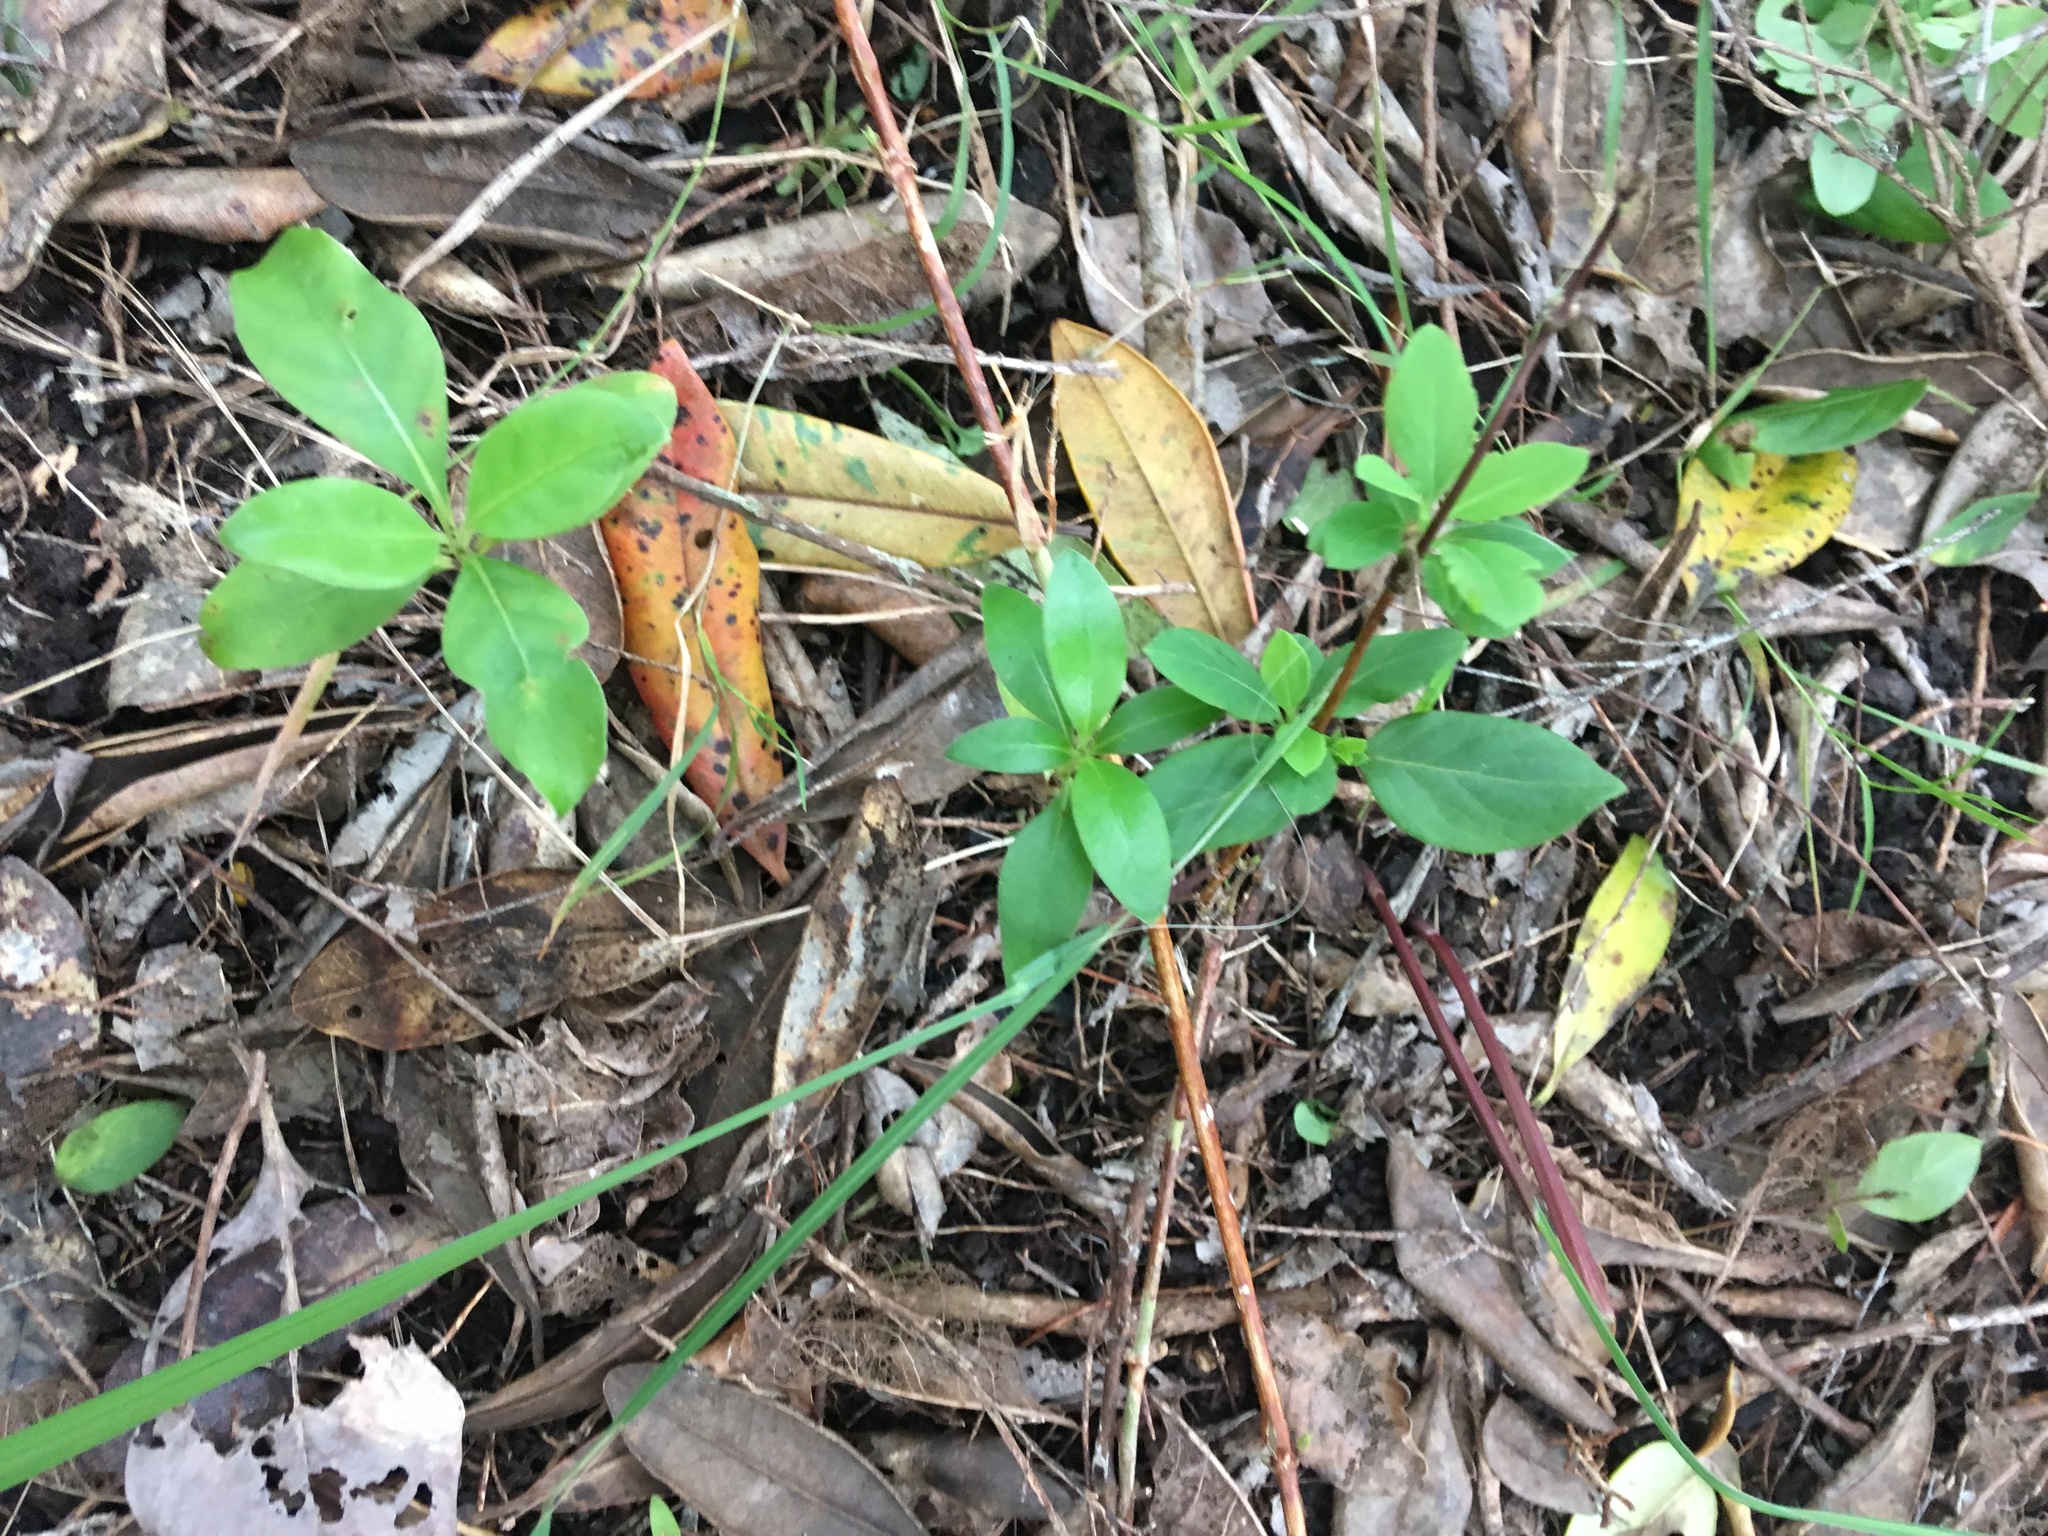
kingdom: Plantae
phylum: Tracheophyta
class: Magnoliopsida
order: Gentianales
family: Rubiaceae
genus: Coprosma
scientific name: Coprosma robusta
